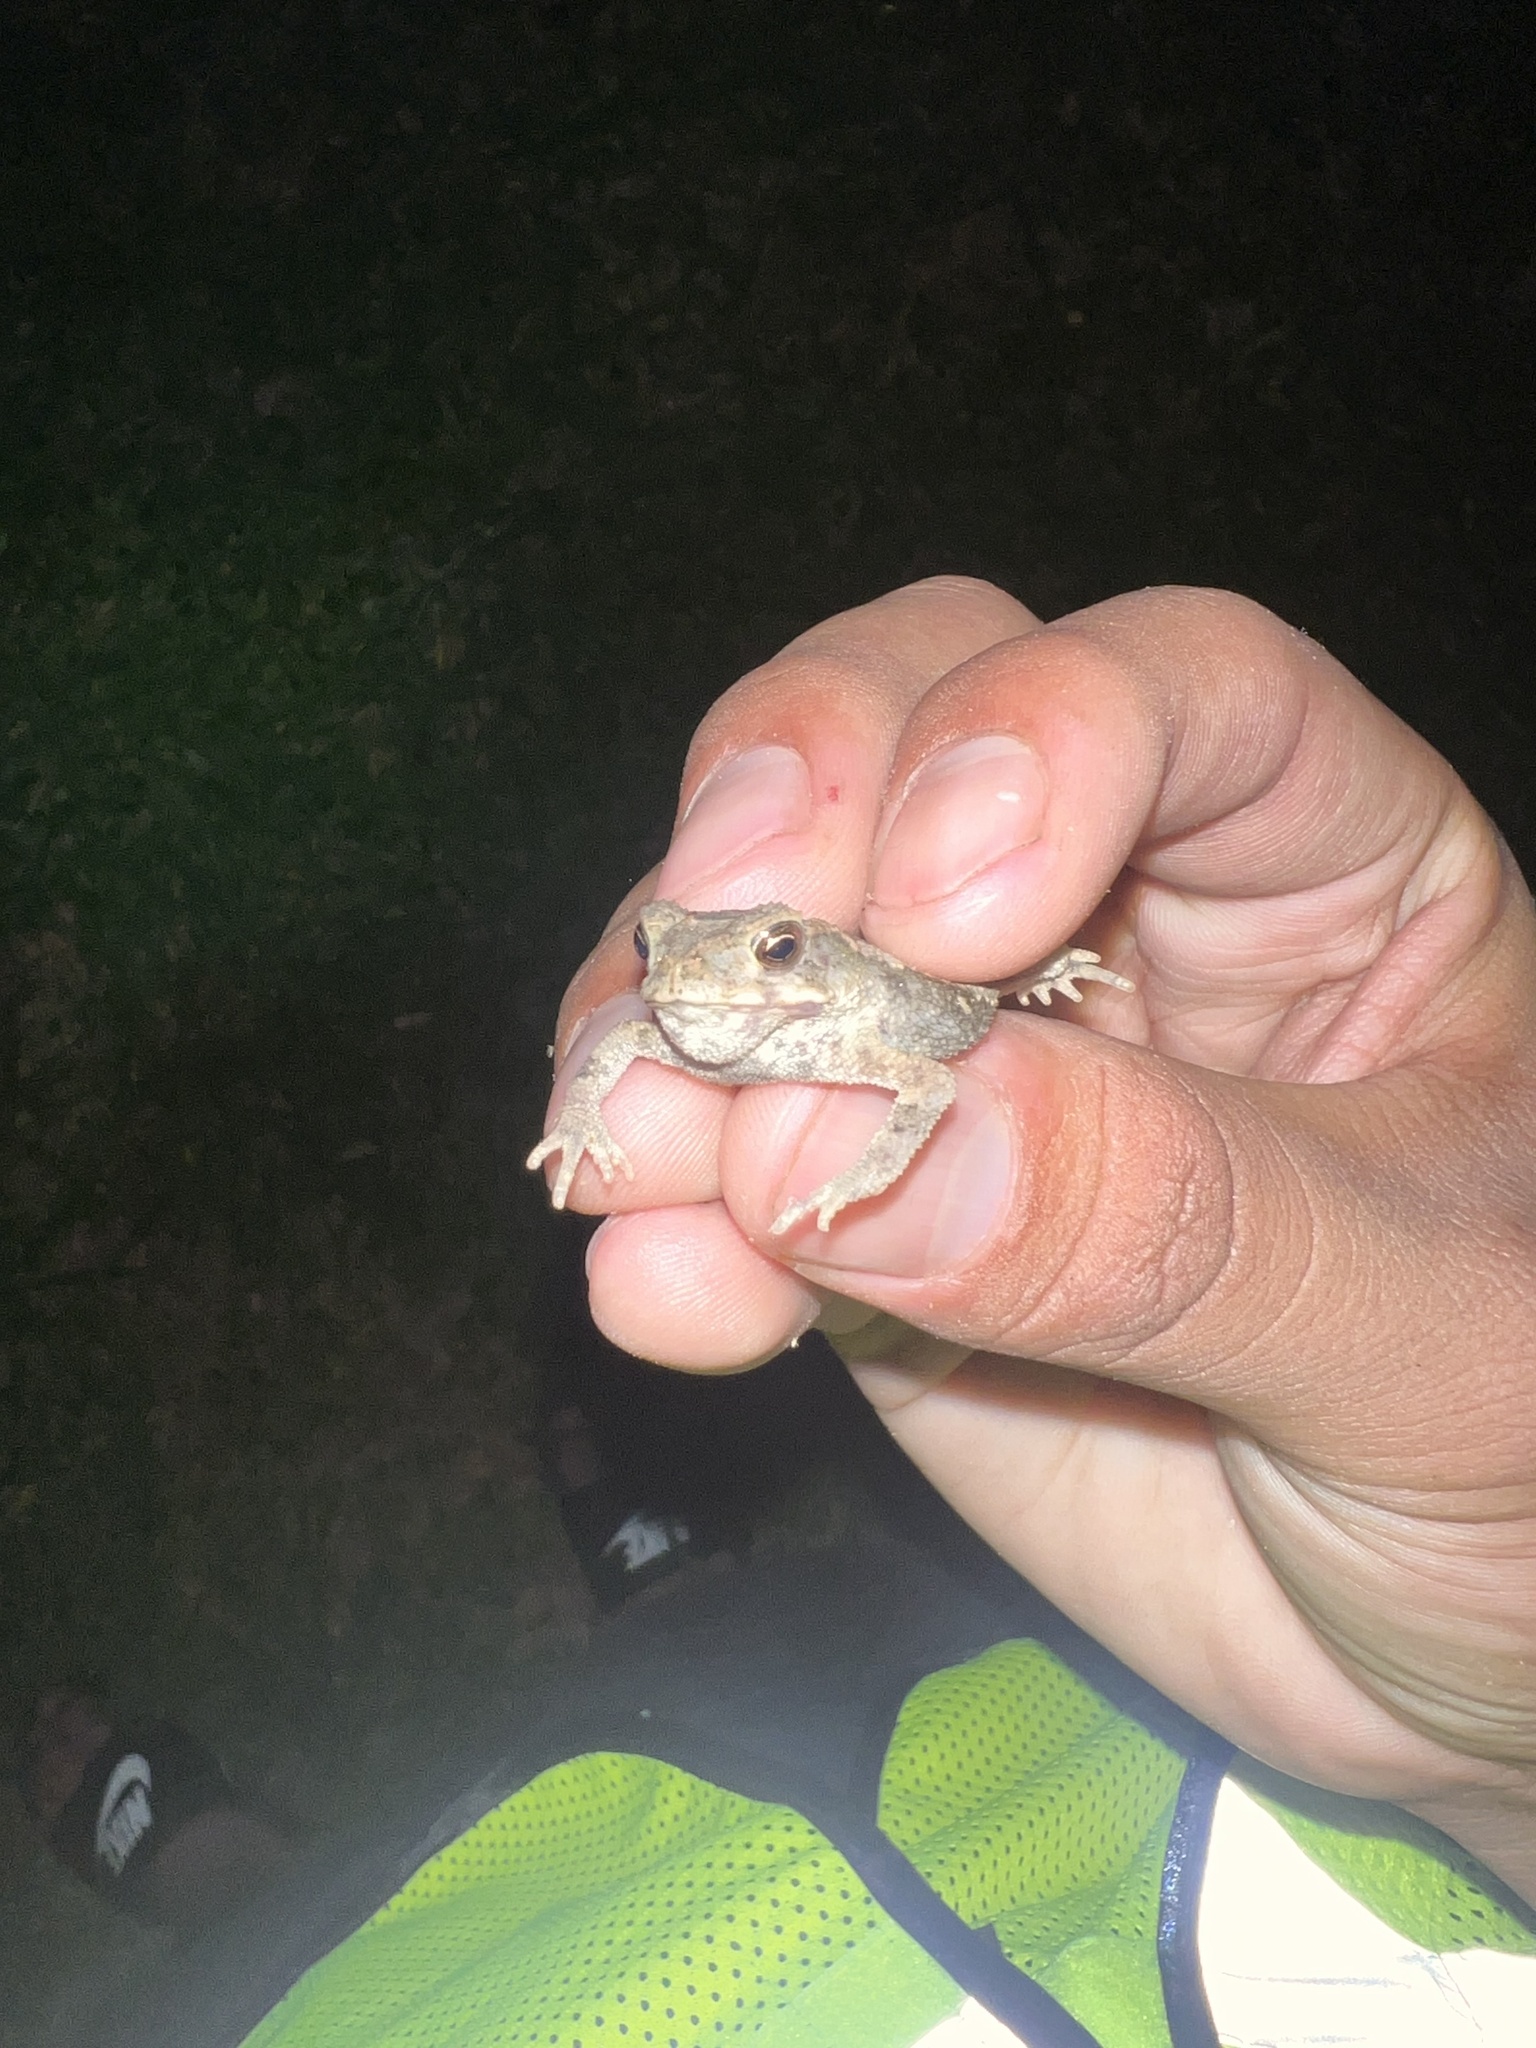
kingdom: Animalia
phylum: Chordata
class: Amphibia
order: Anura
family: Bufonidae
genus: Incilius
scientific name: Incilius nebulifer
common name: Gulf coast toad
